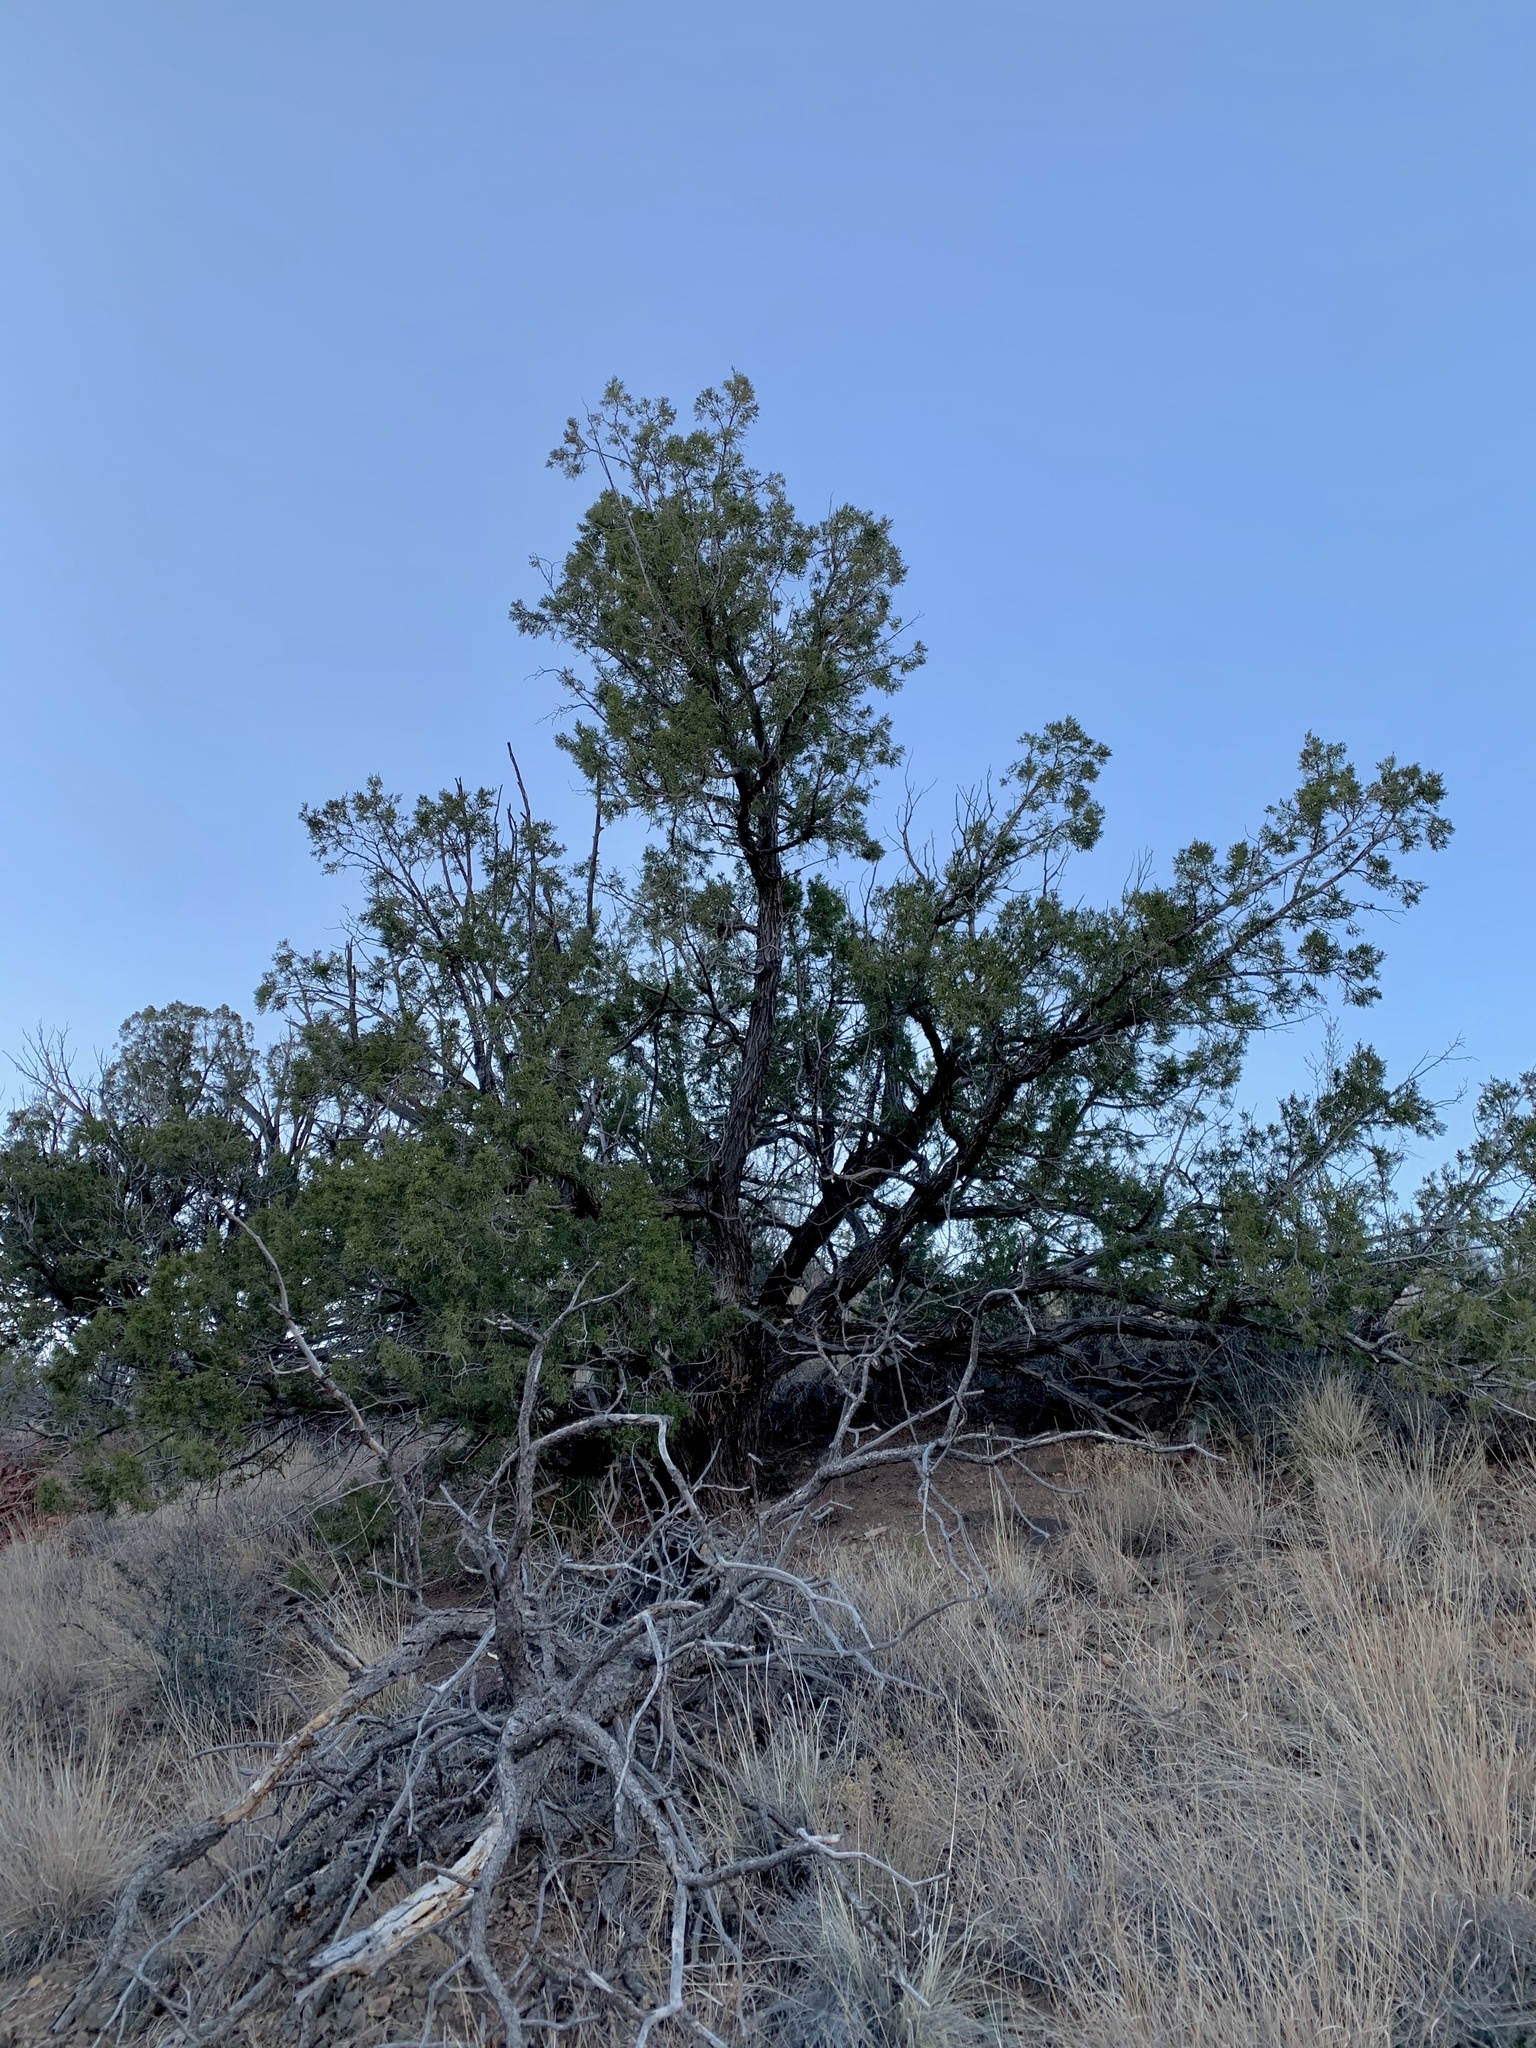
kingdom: Plantae
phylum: Tracheophyta
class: Pinopsida
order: Pinales
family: Cupressaceae
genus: Juniperus
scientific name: Juniperus monosperma
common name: One-seed juniper
